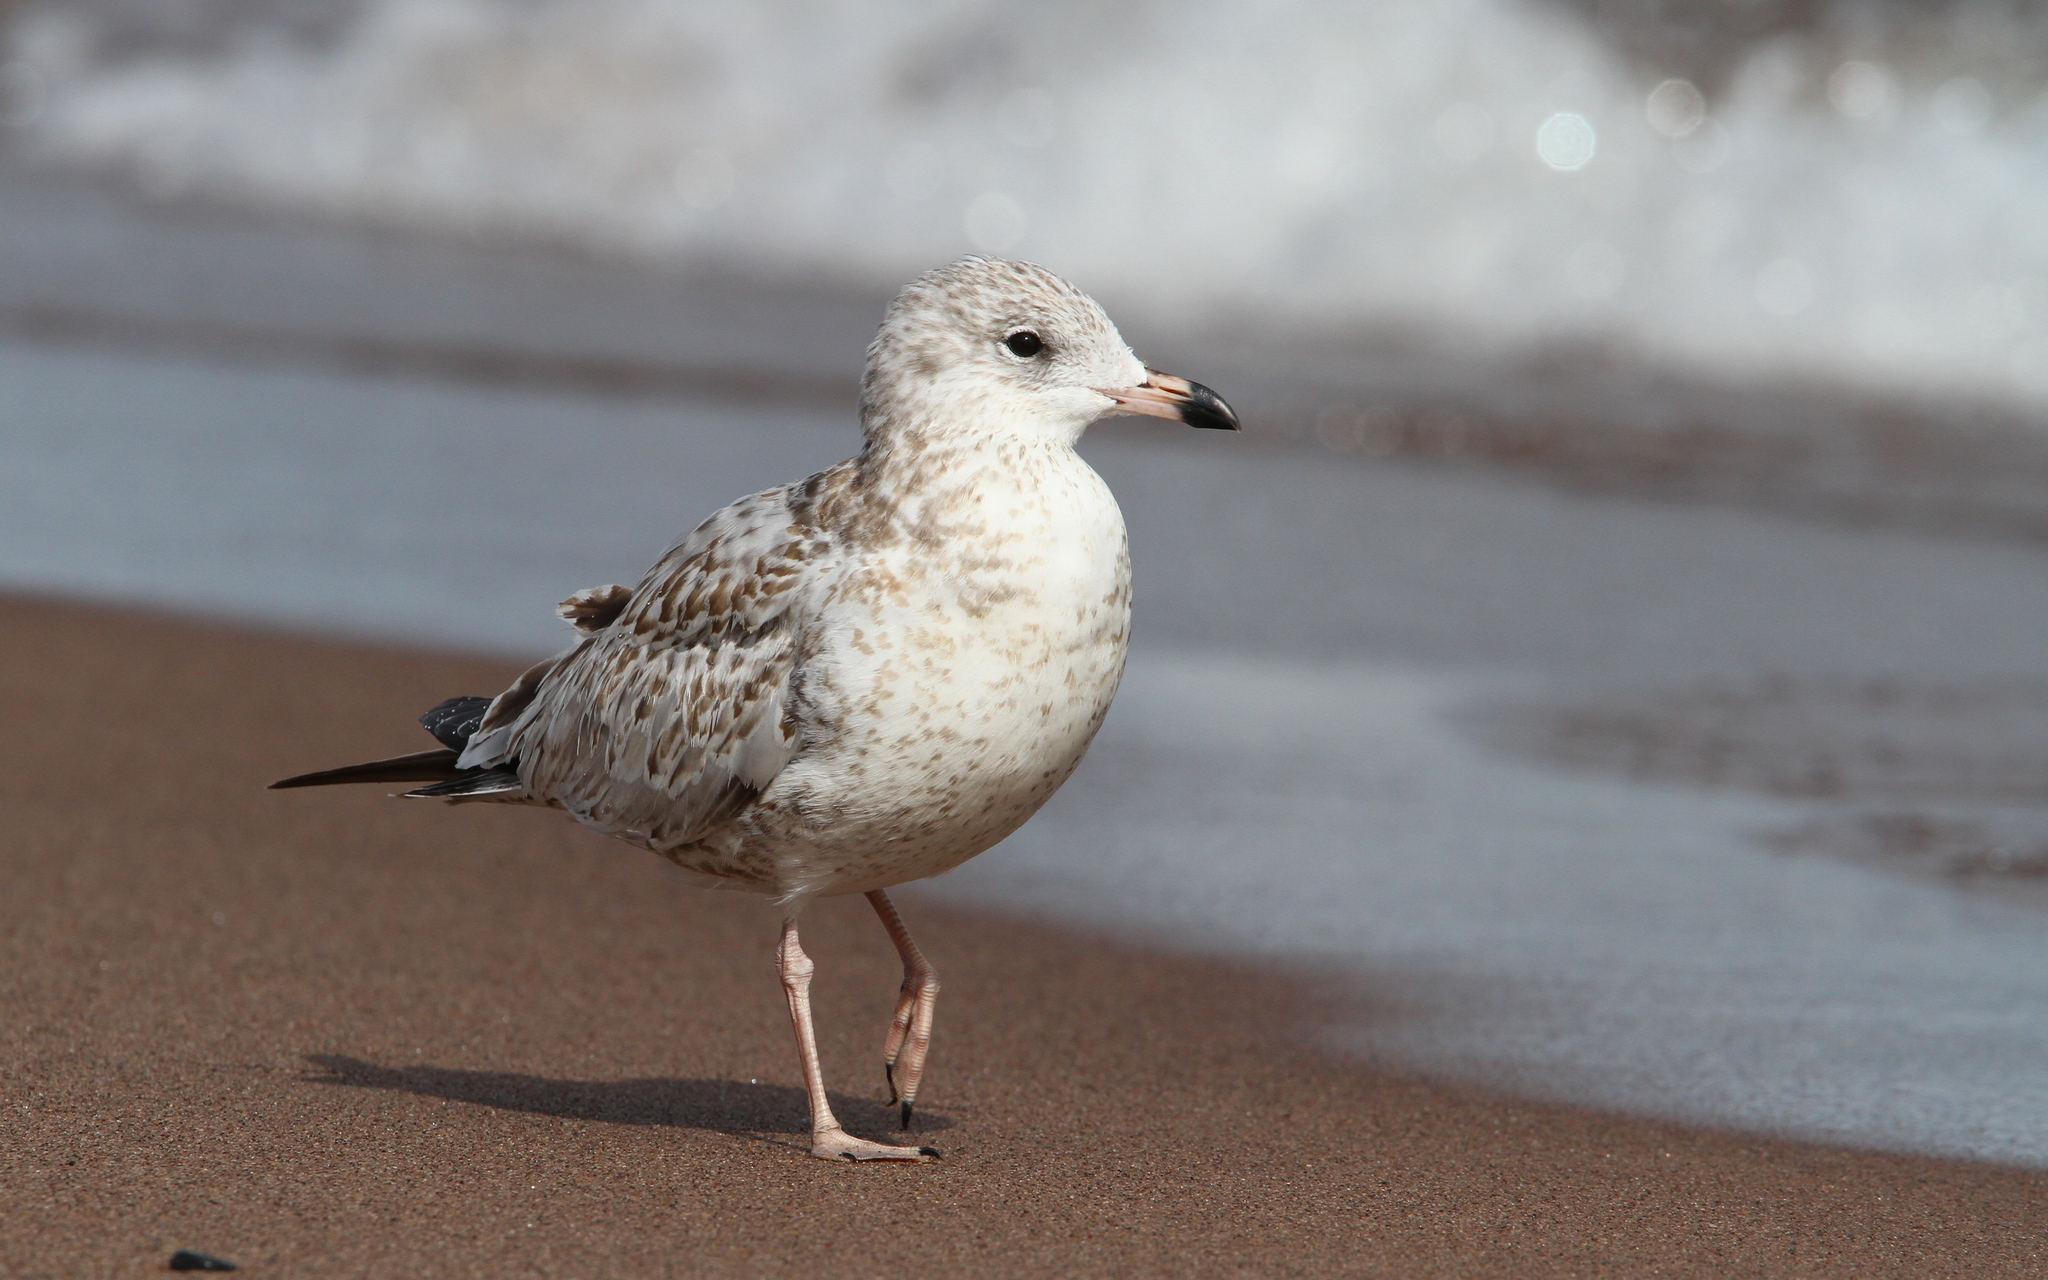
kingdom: Animalia
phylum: Chordata
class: Aves
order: Charadriiformes
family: Laridae
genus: Larus
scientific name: Larus delawarensis
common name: Ring-billed gull
